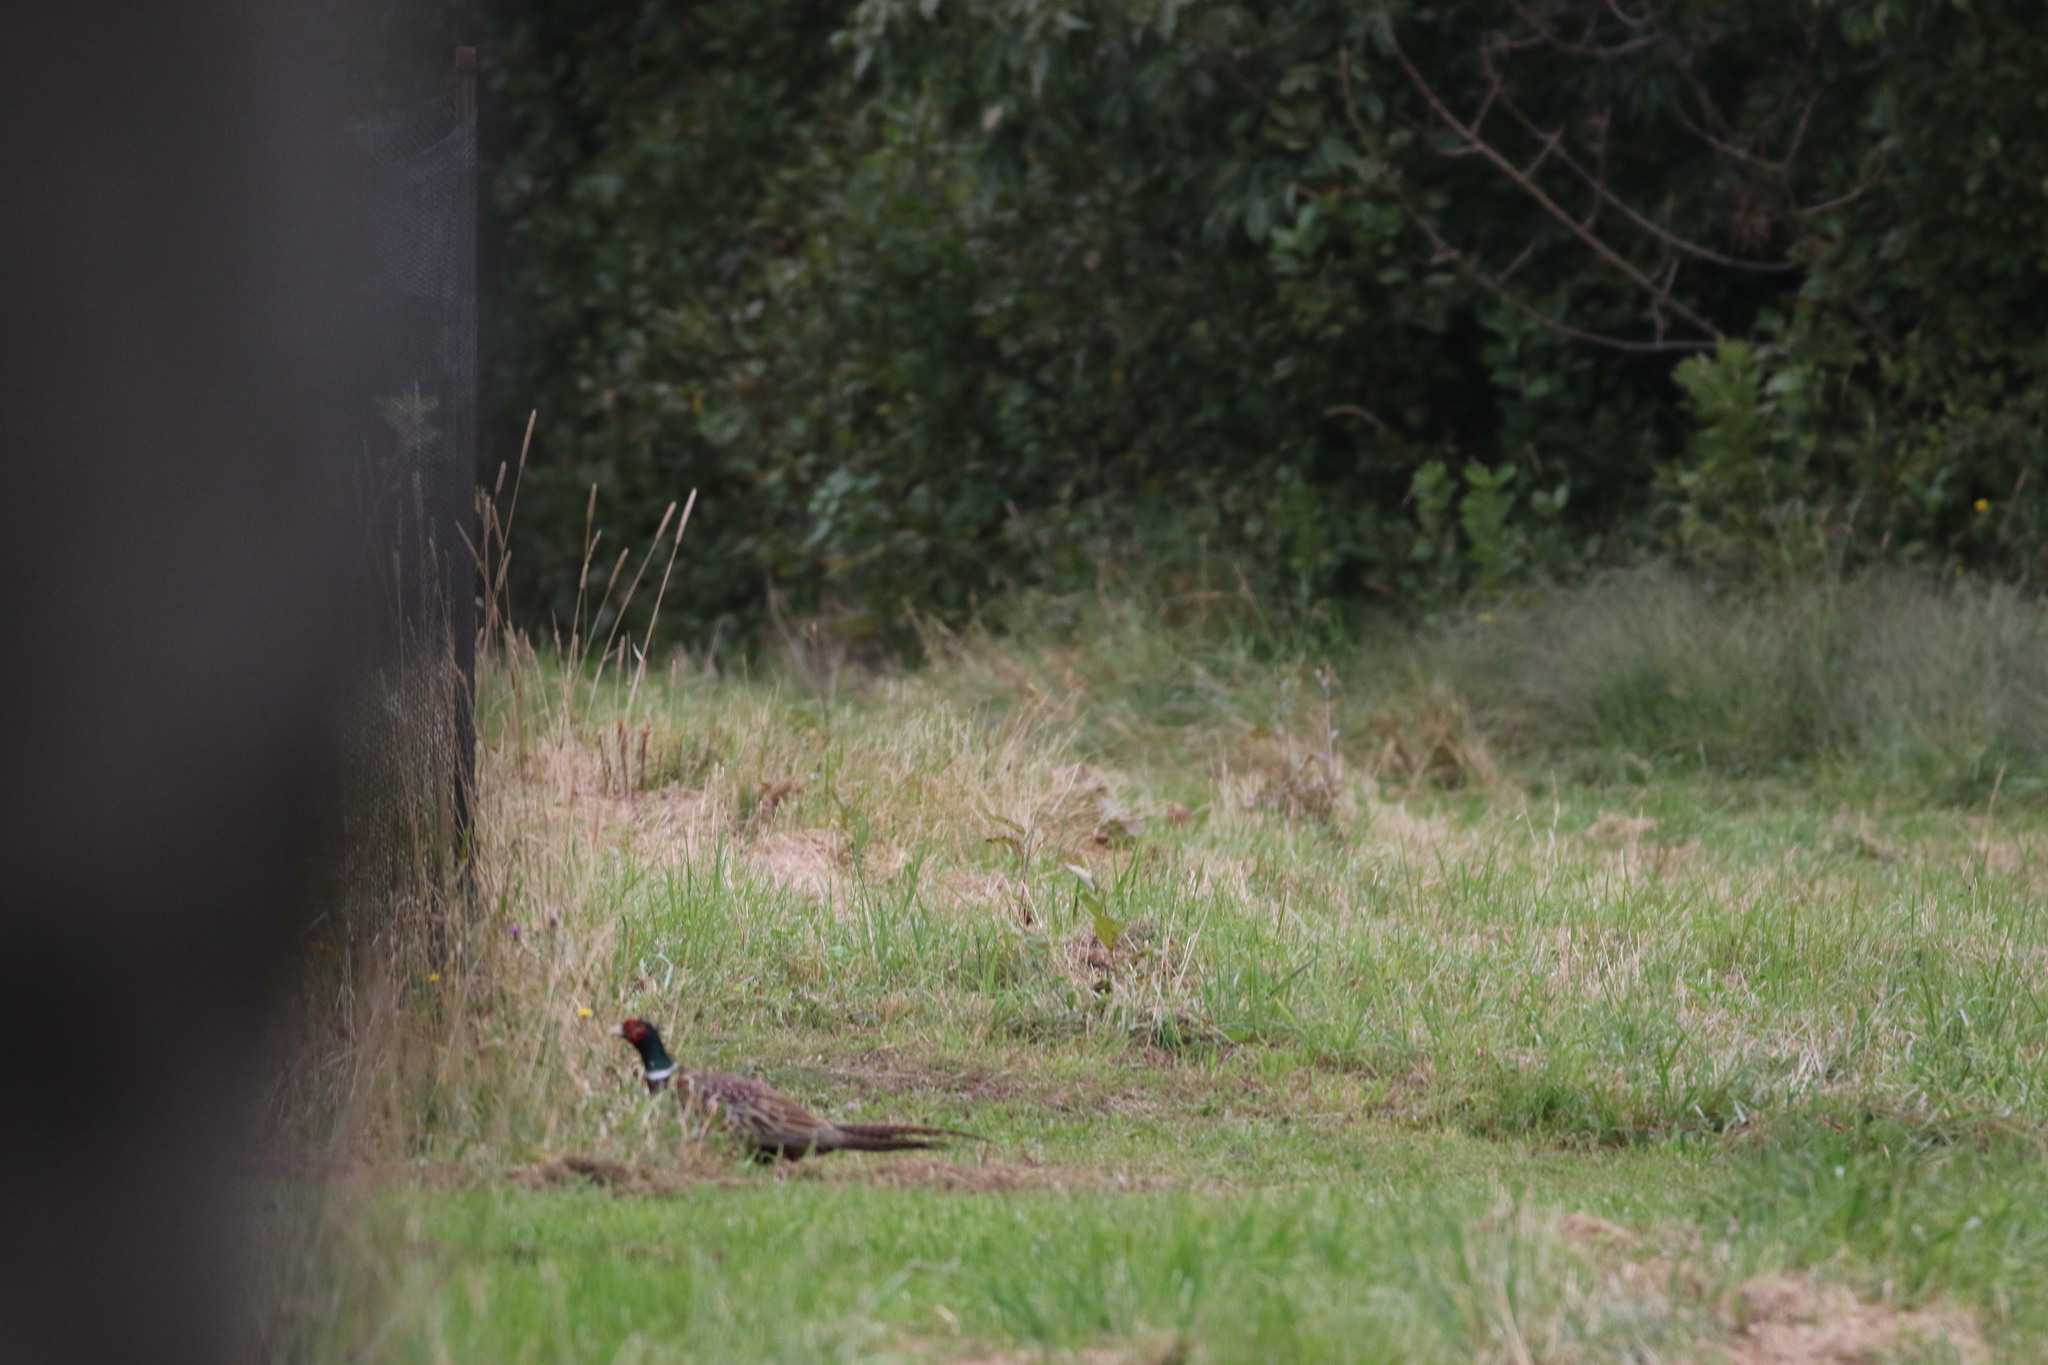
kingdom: Animalia
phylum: Chordata
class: Aves
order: Galliformes
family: Phasianidae
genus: Phasianus
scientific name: Phasianus colchicus
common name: Common pheasant
